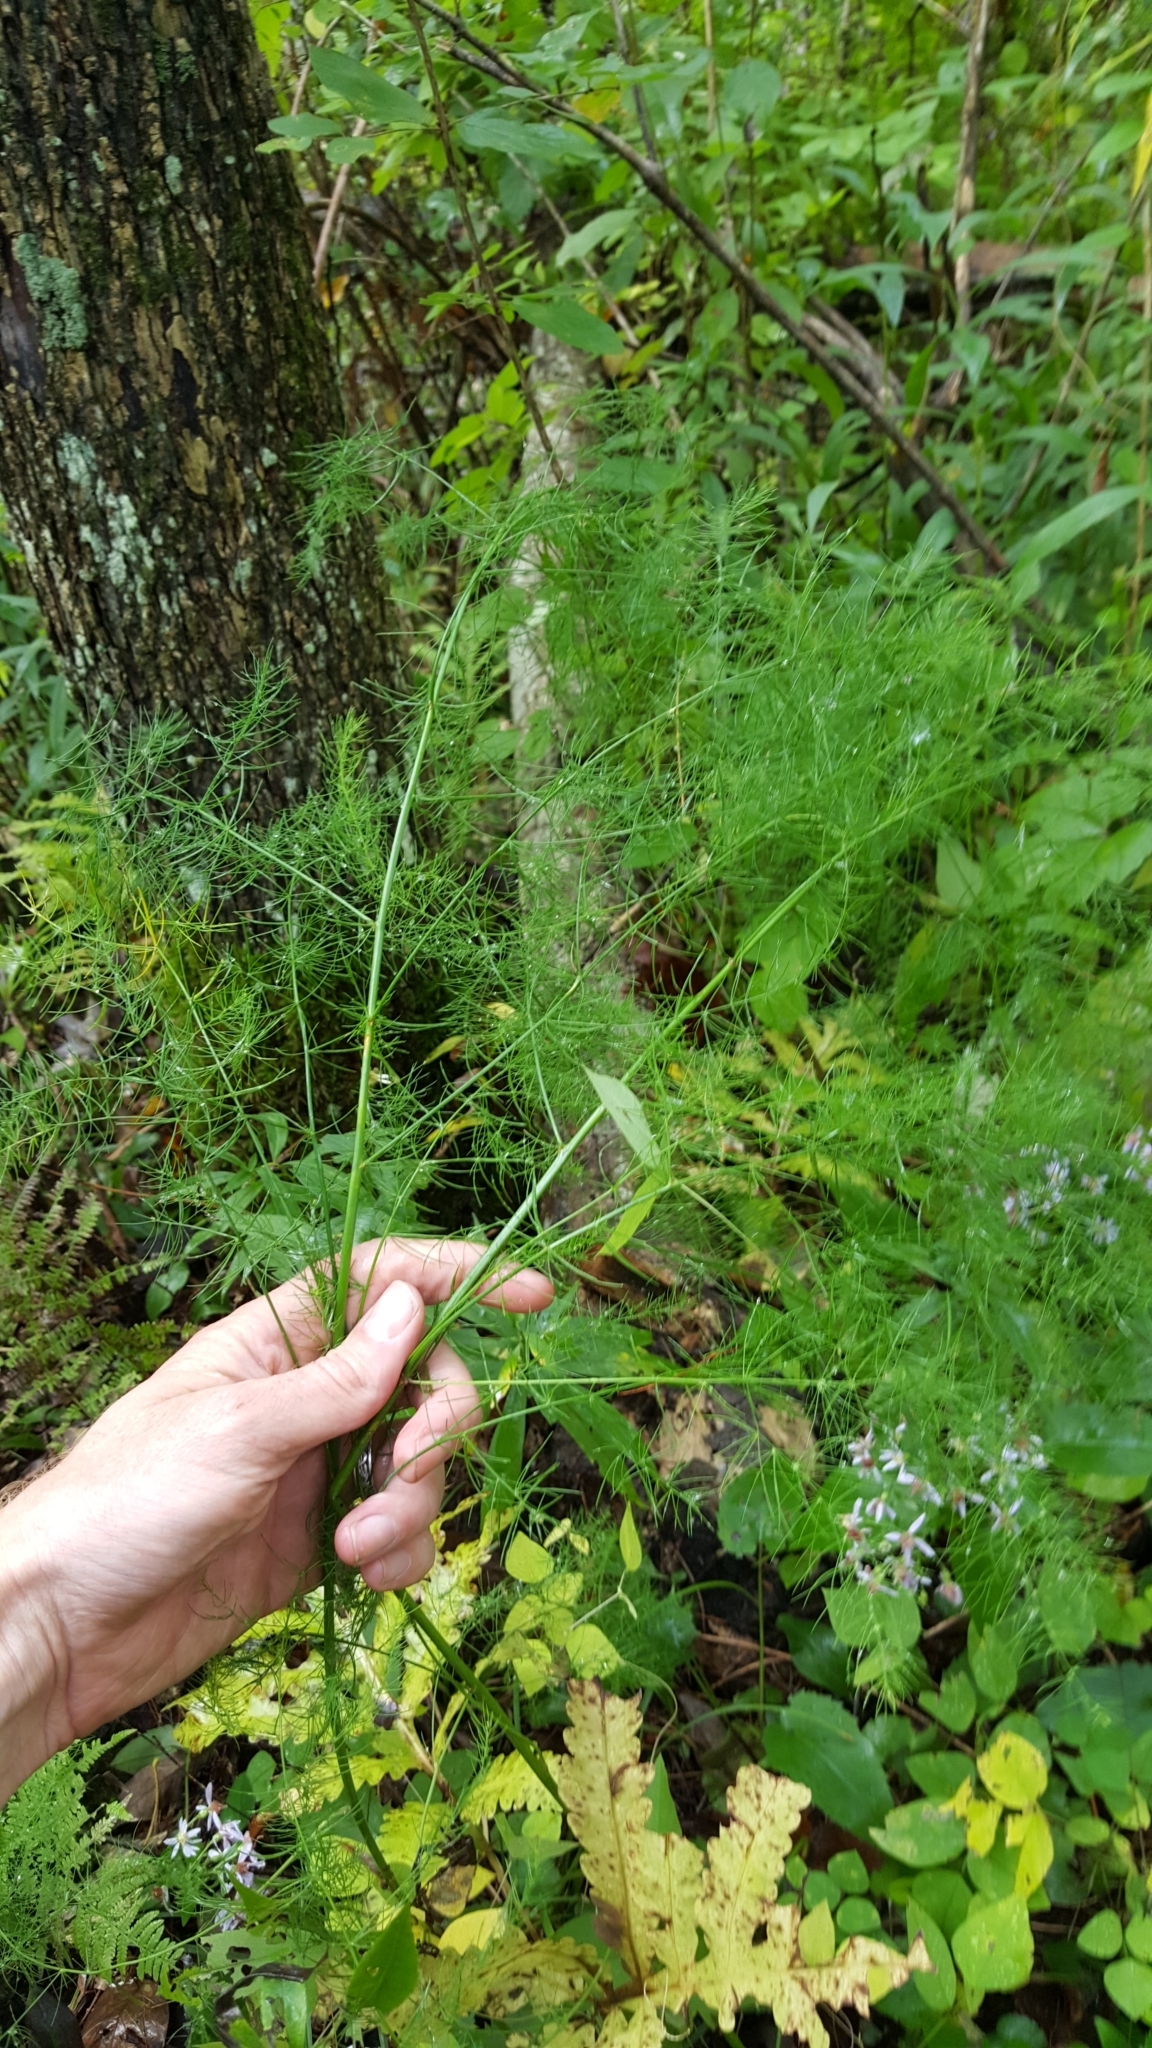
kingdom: Plantae
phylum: Tracheophyta
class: Liliopsida
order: Asparagales
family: Asparagaceae
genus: Asparagus
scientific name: Asparagus officinalis
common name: Garden asparagus
